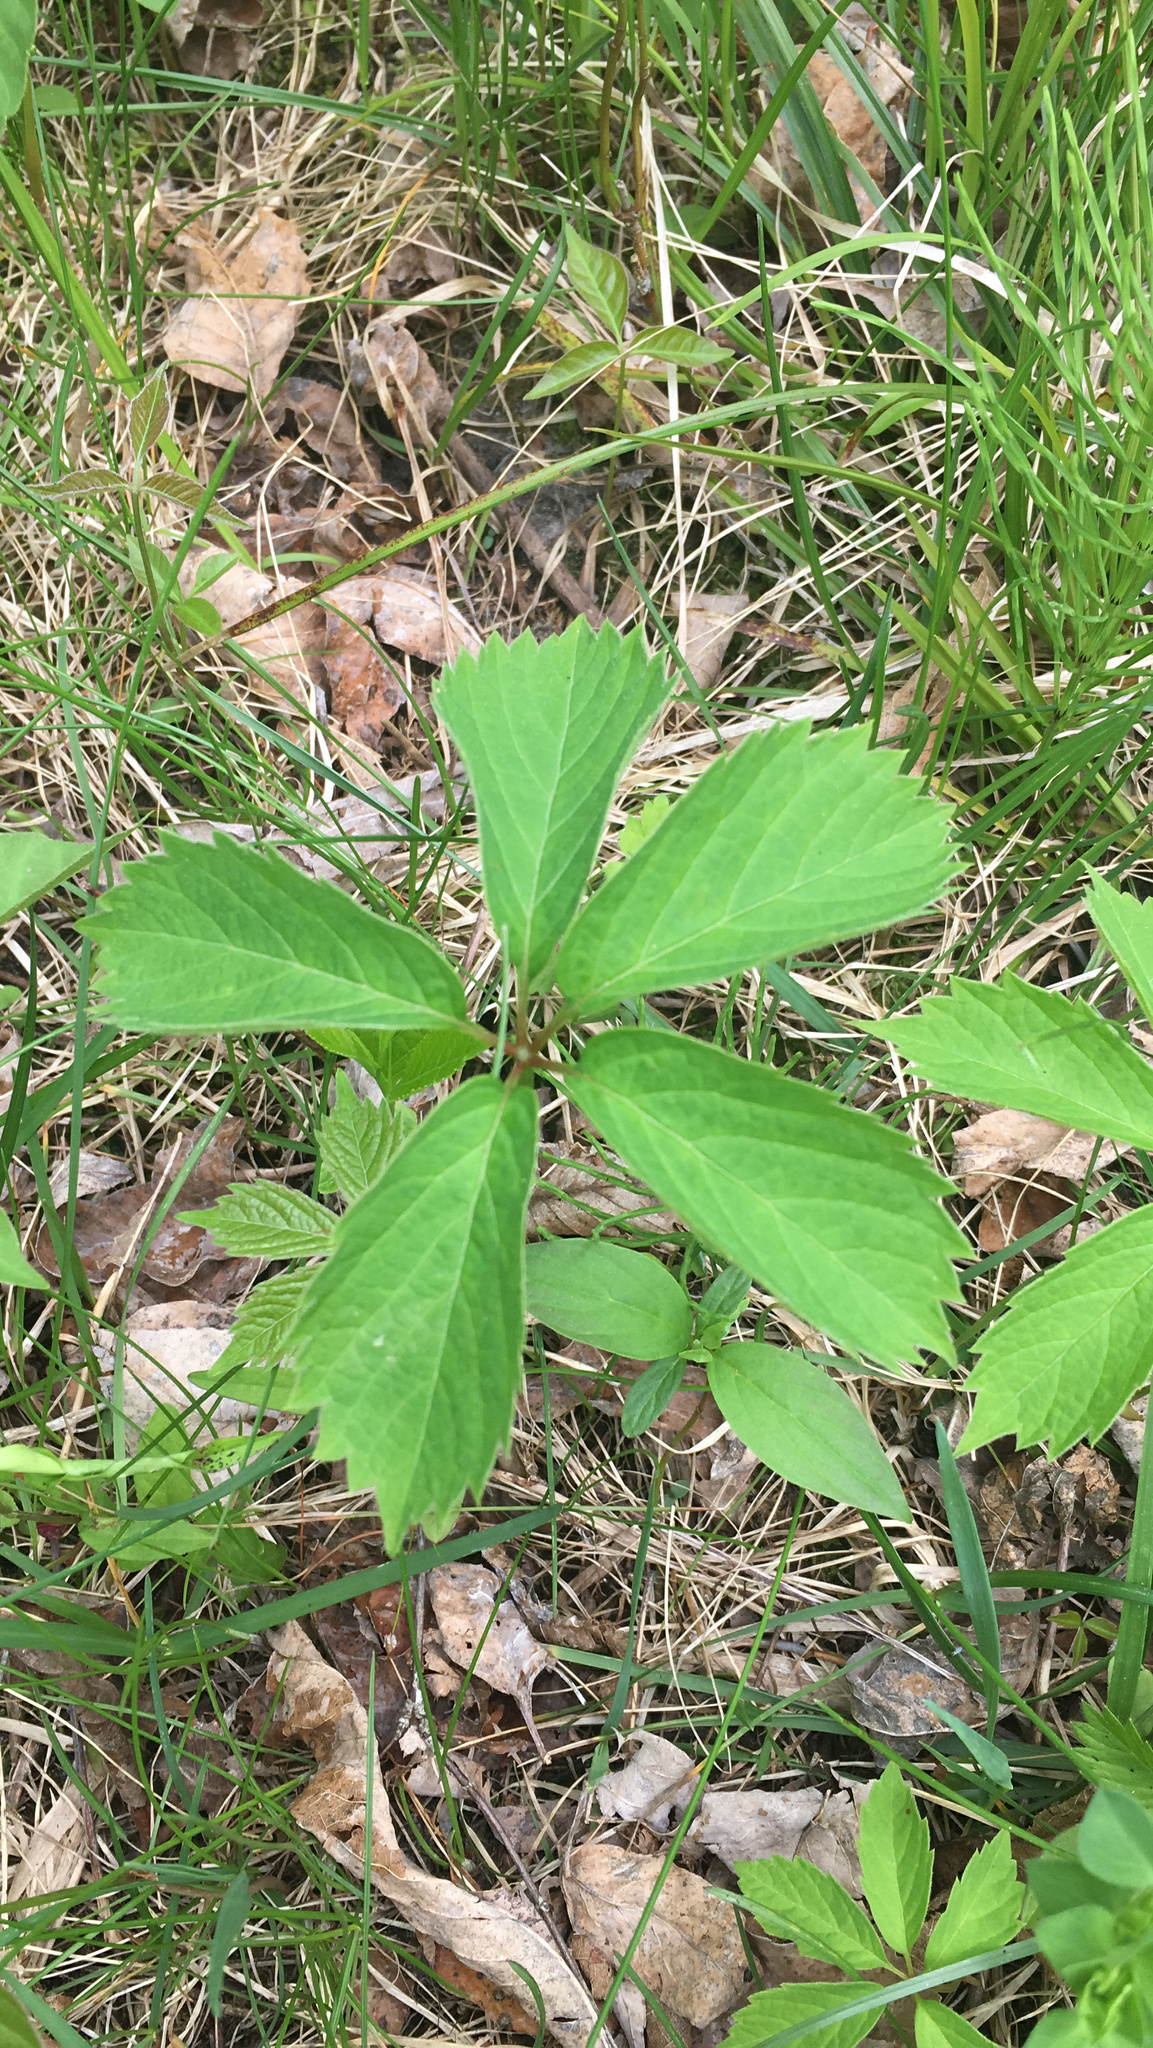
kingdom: Plantae
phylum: Tracheophyta
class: Magnoliopsida
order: Vitales
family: Vitaceae
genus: Parthenocissus
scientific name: Parthenocissus inserta
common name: False virginia-creeper
